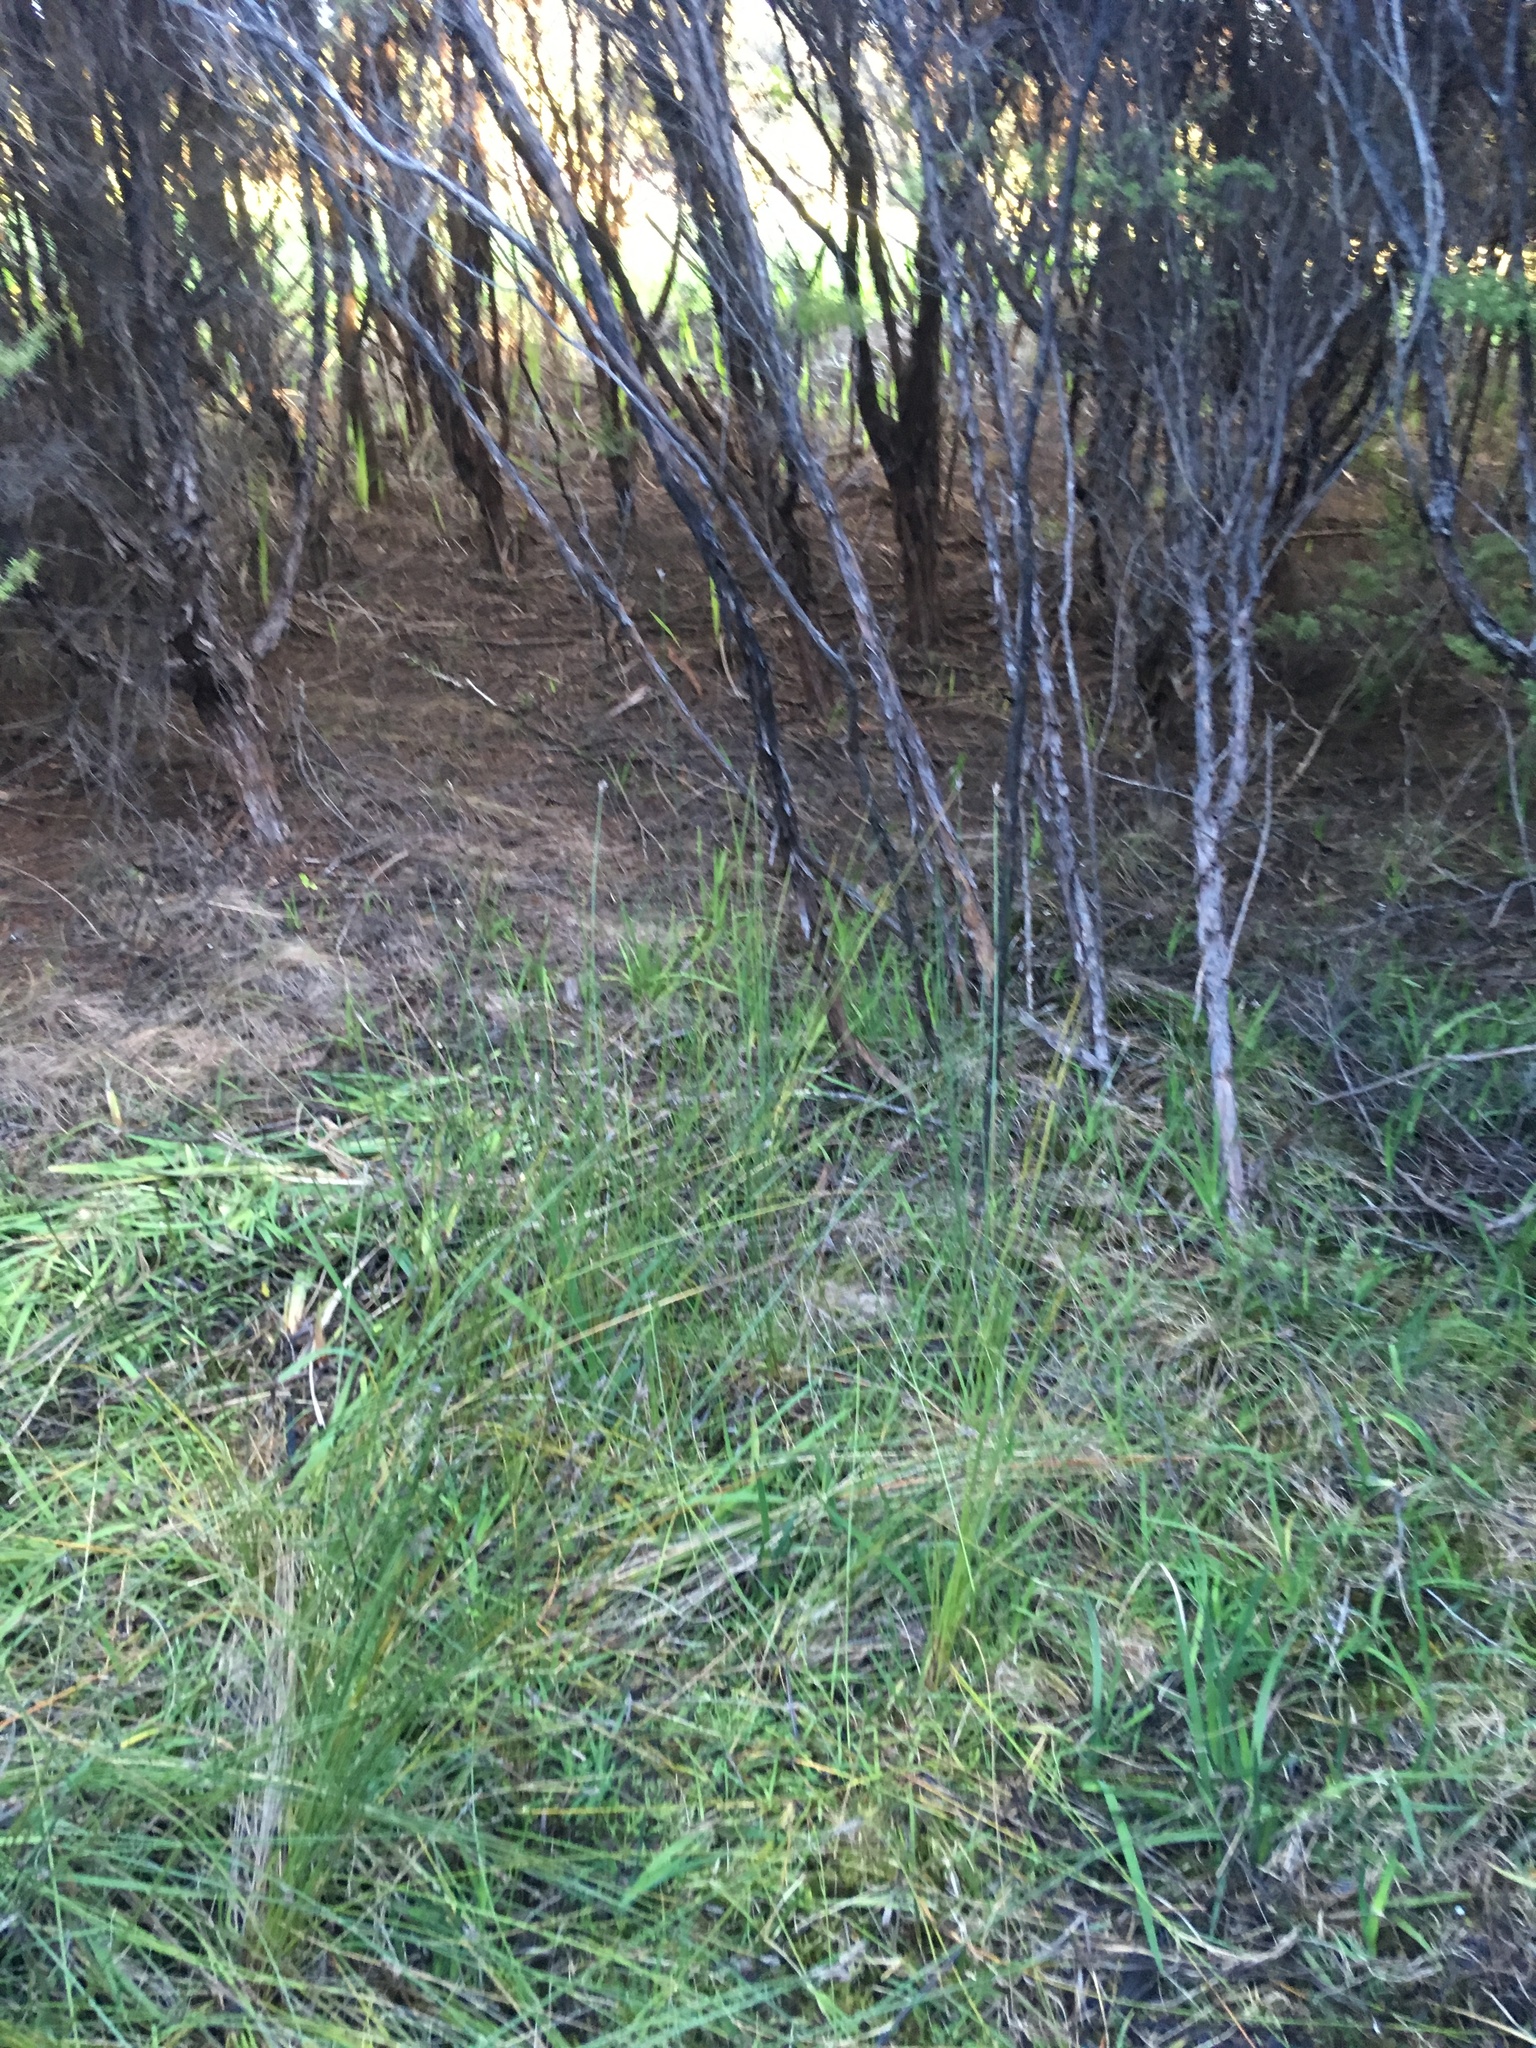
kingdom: Plantae
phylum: Tracheophyta
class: Liliopsida
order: Poales
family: Cyperaceae
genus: Lepidosperma
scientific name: Lepidosperma australe
